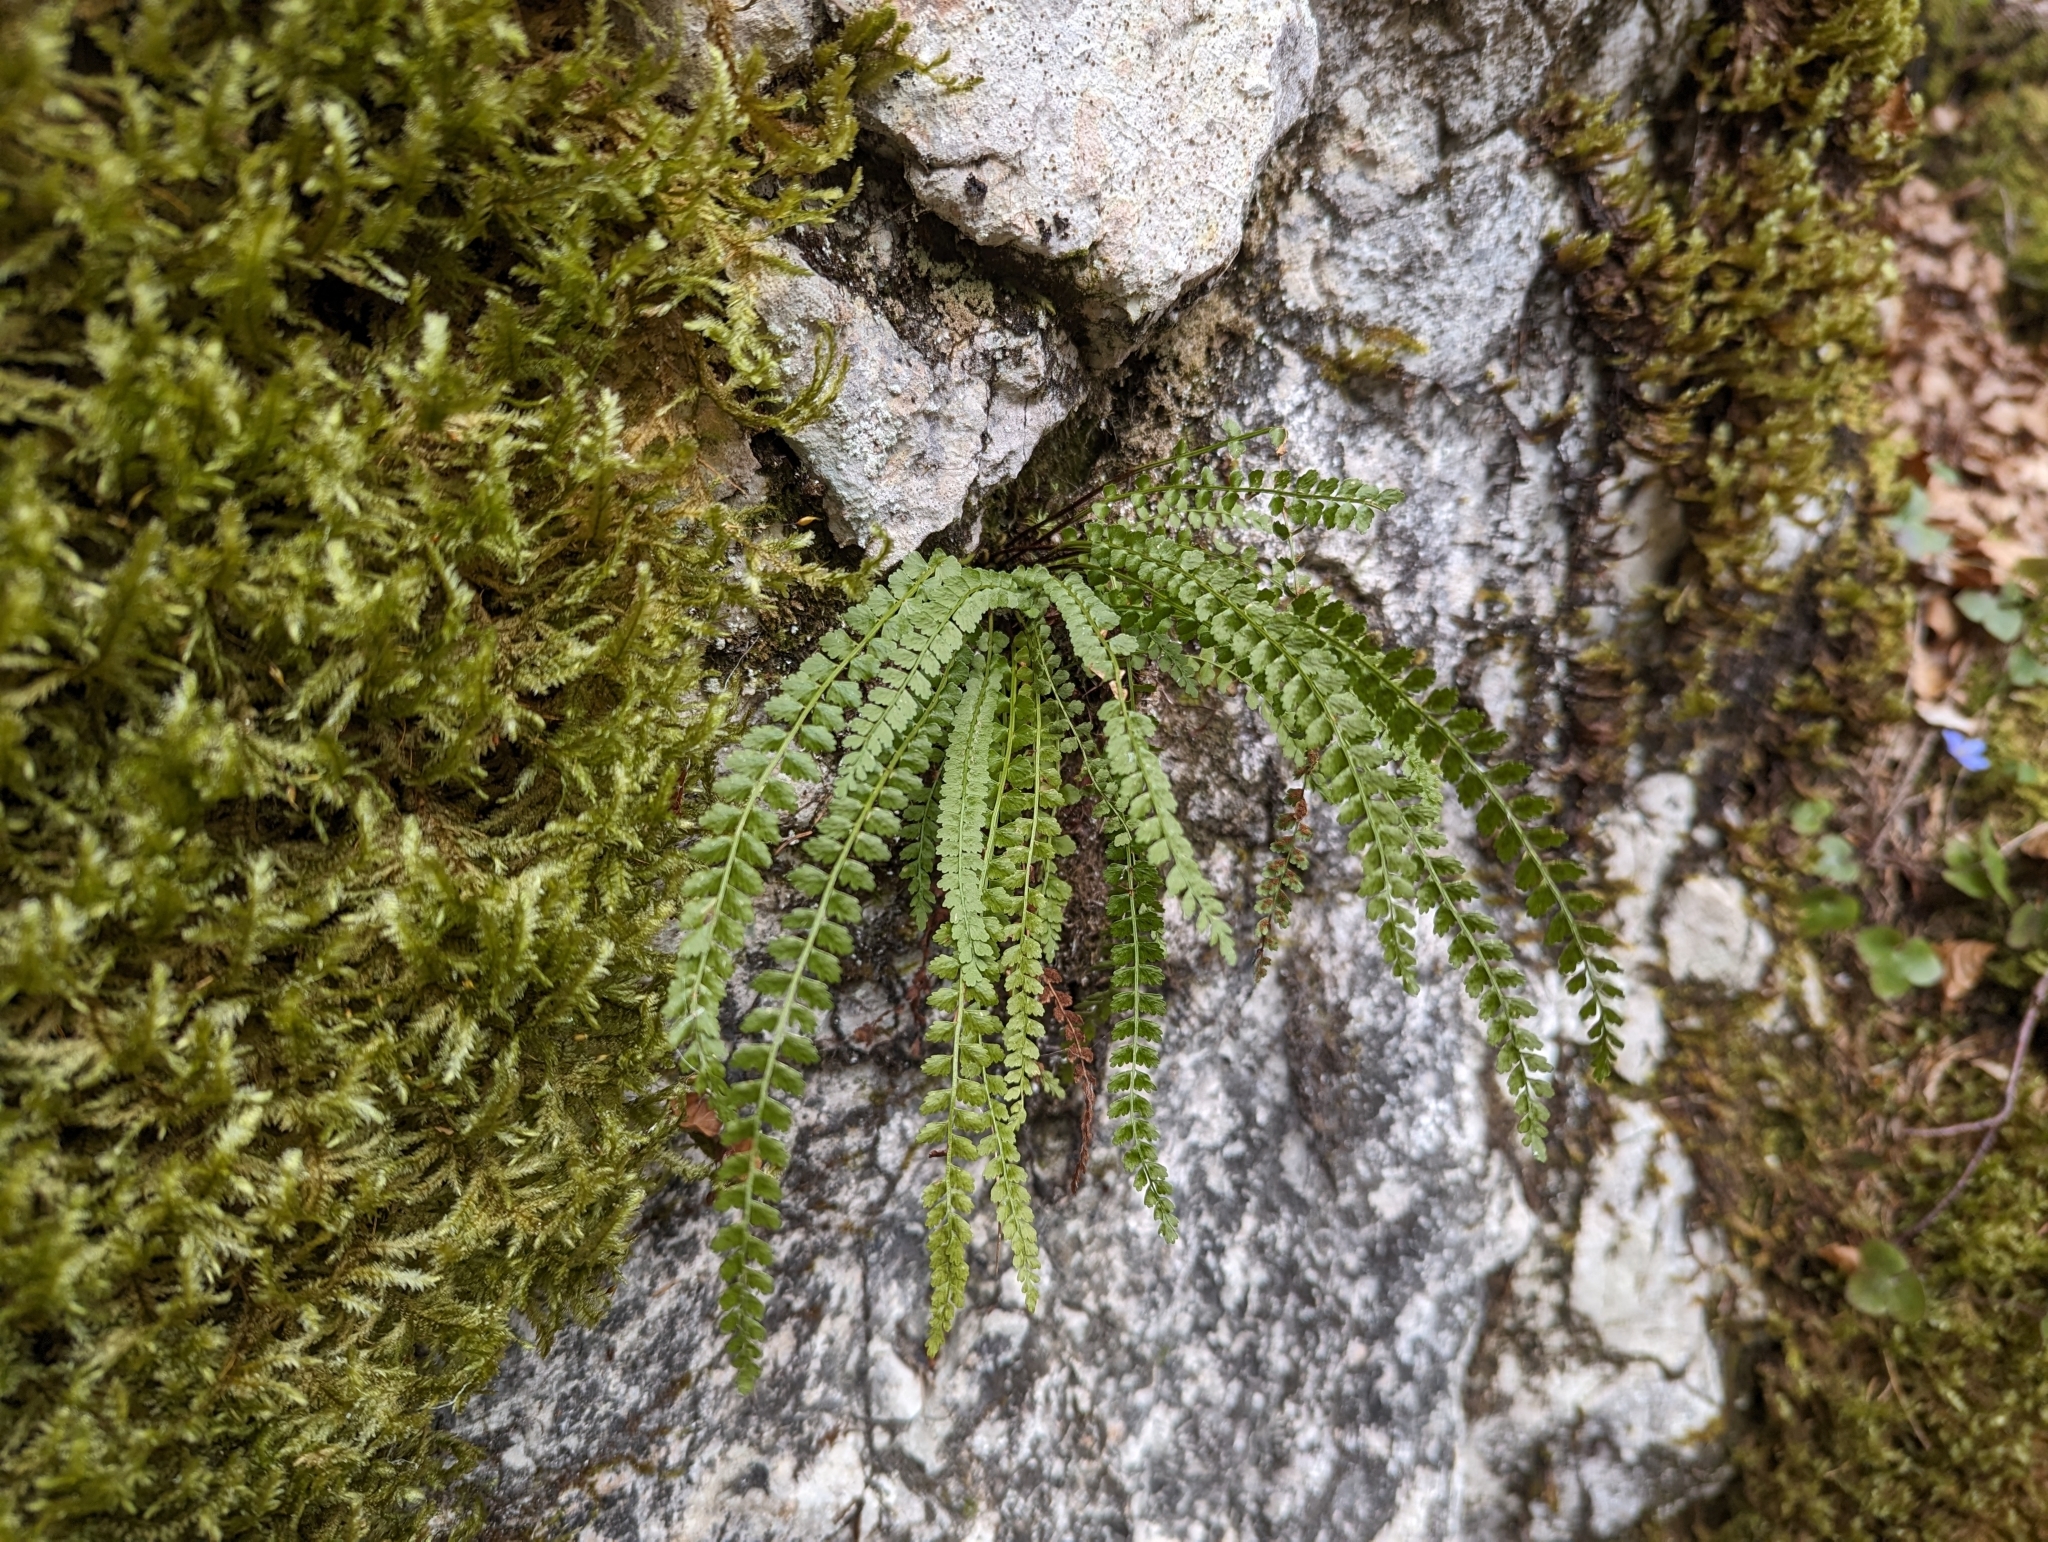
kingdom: Plantae
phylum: Tracheophyta
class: Polypodiopsida
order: Polypodiales
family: Aspleniaceae
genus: Asplenium
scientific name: Asplenium viride
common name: Green spleenwort
